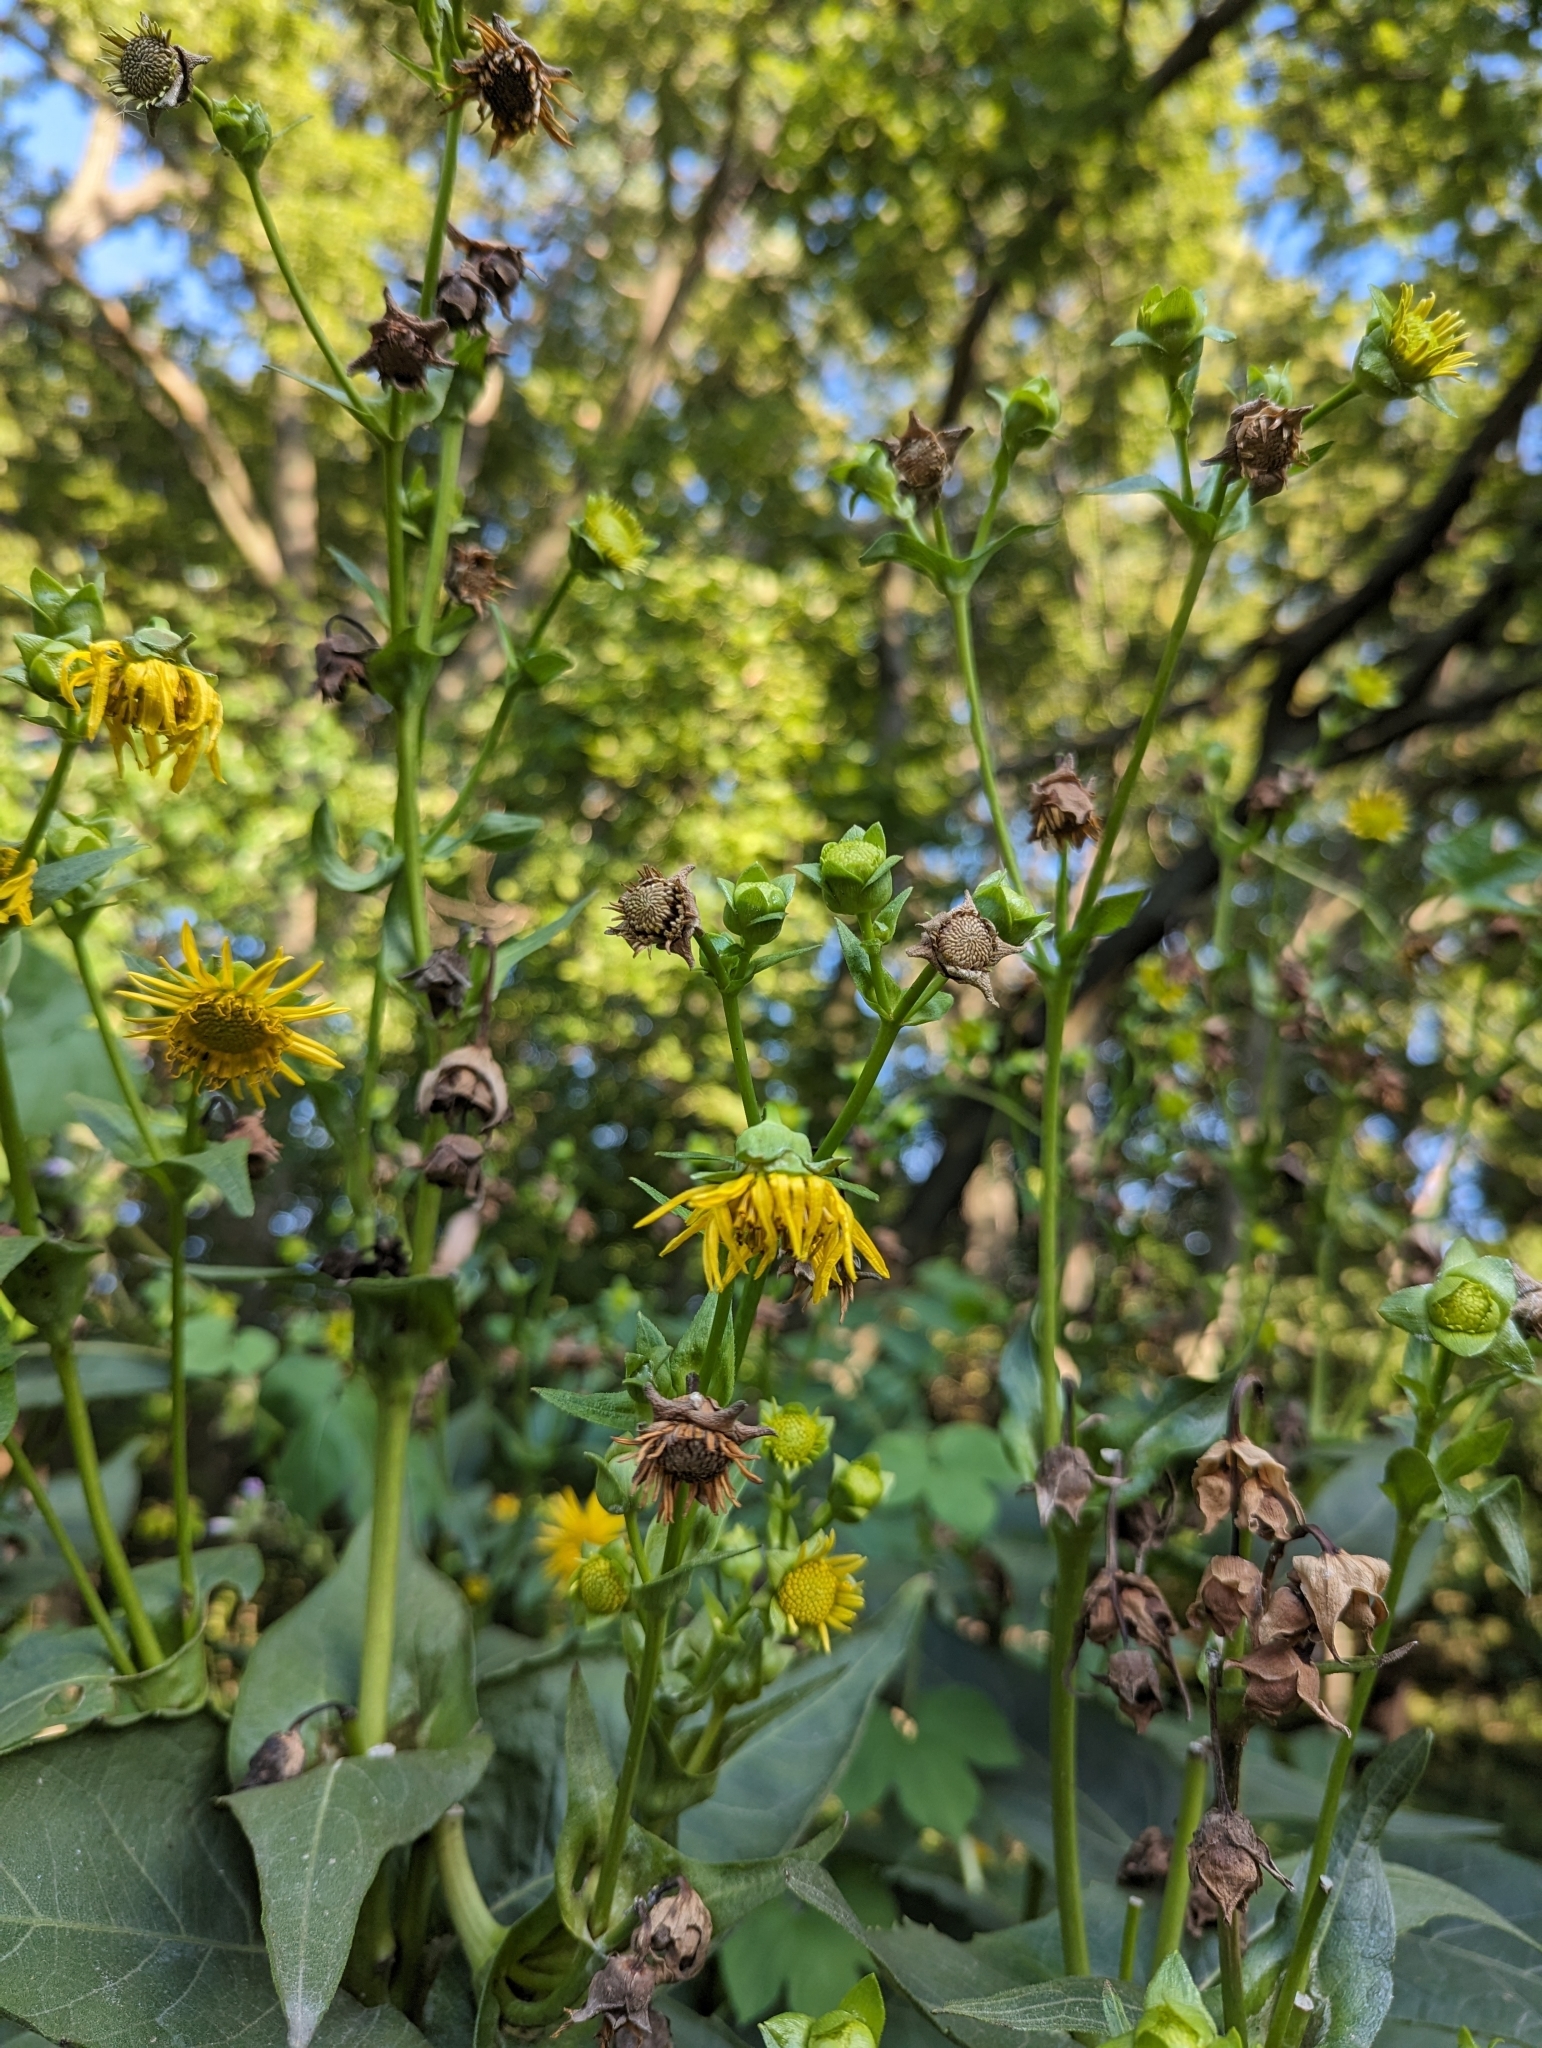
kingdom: Plantae
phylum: Tracheophyta
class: Magnoliopsida
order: Asterales
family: Asteraceae
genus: Silphium
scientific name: Silphium perfoliatum
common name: Cup-plant
